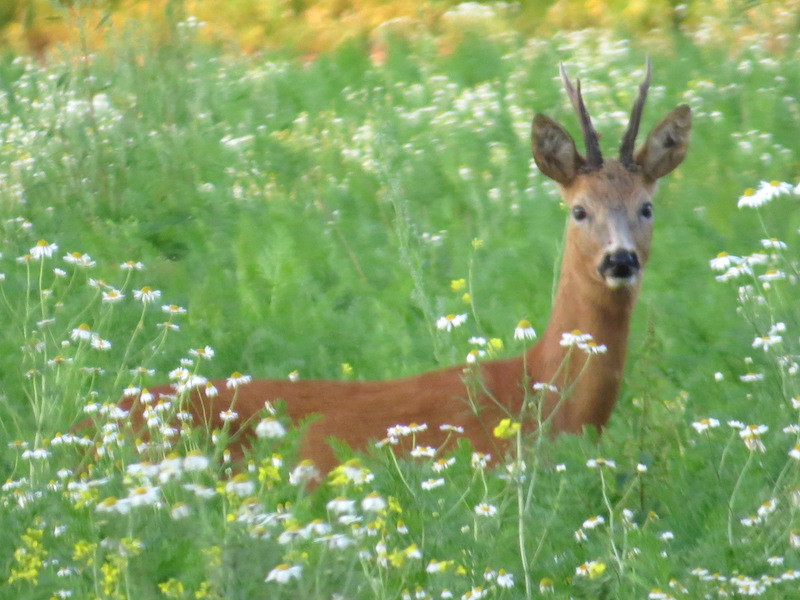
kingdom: Animalia
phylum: Chordata
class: Mammalia
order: Artiodactyla
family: Cervidae
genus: Capreolus
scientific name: Capreolus capreolus
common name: Western roe deer
